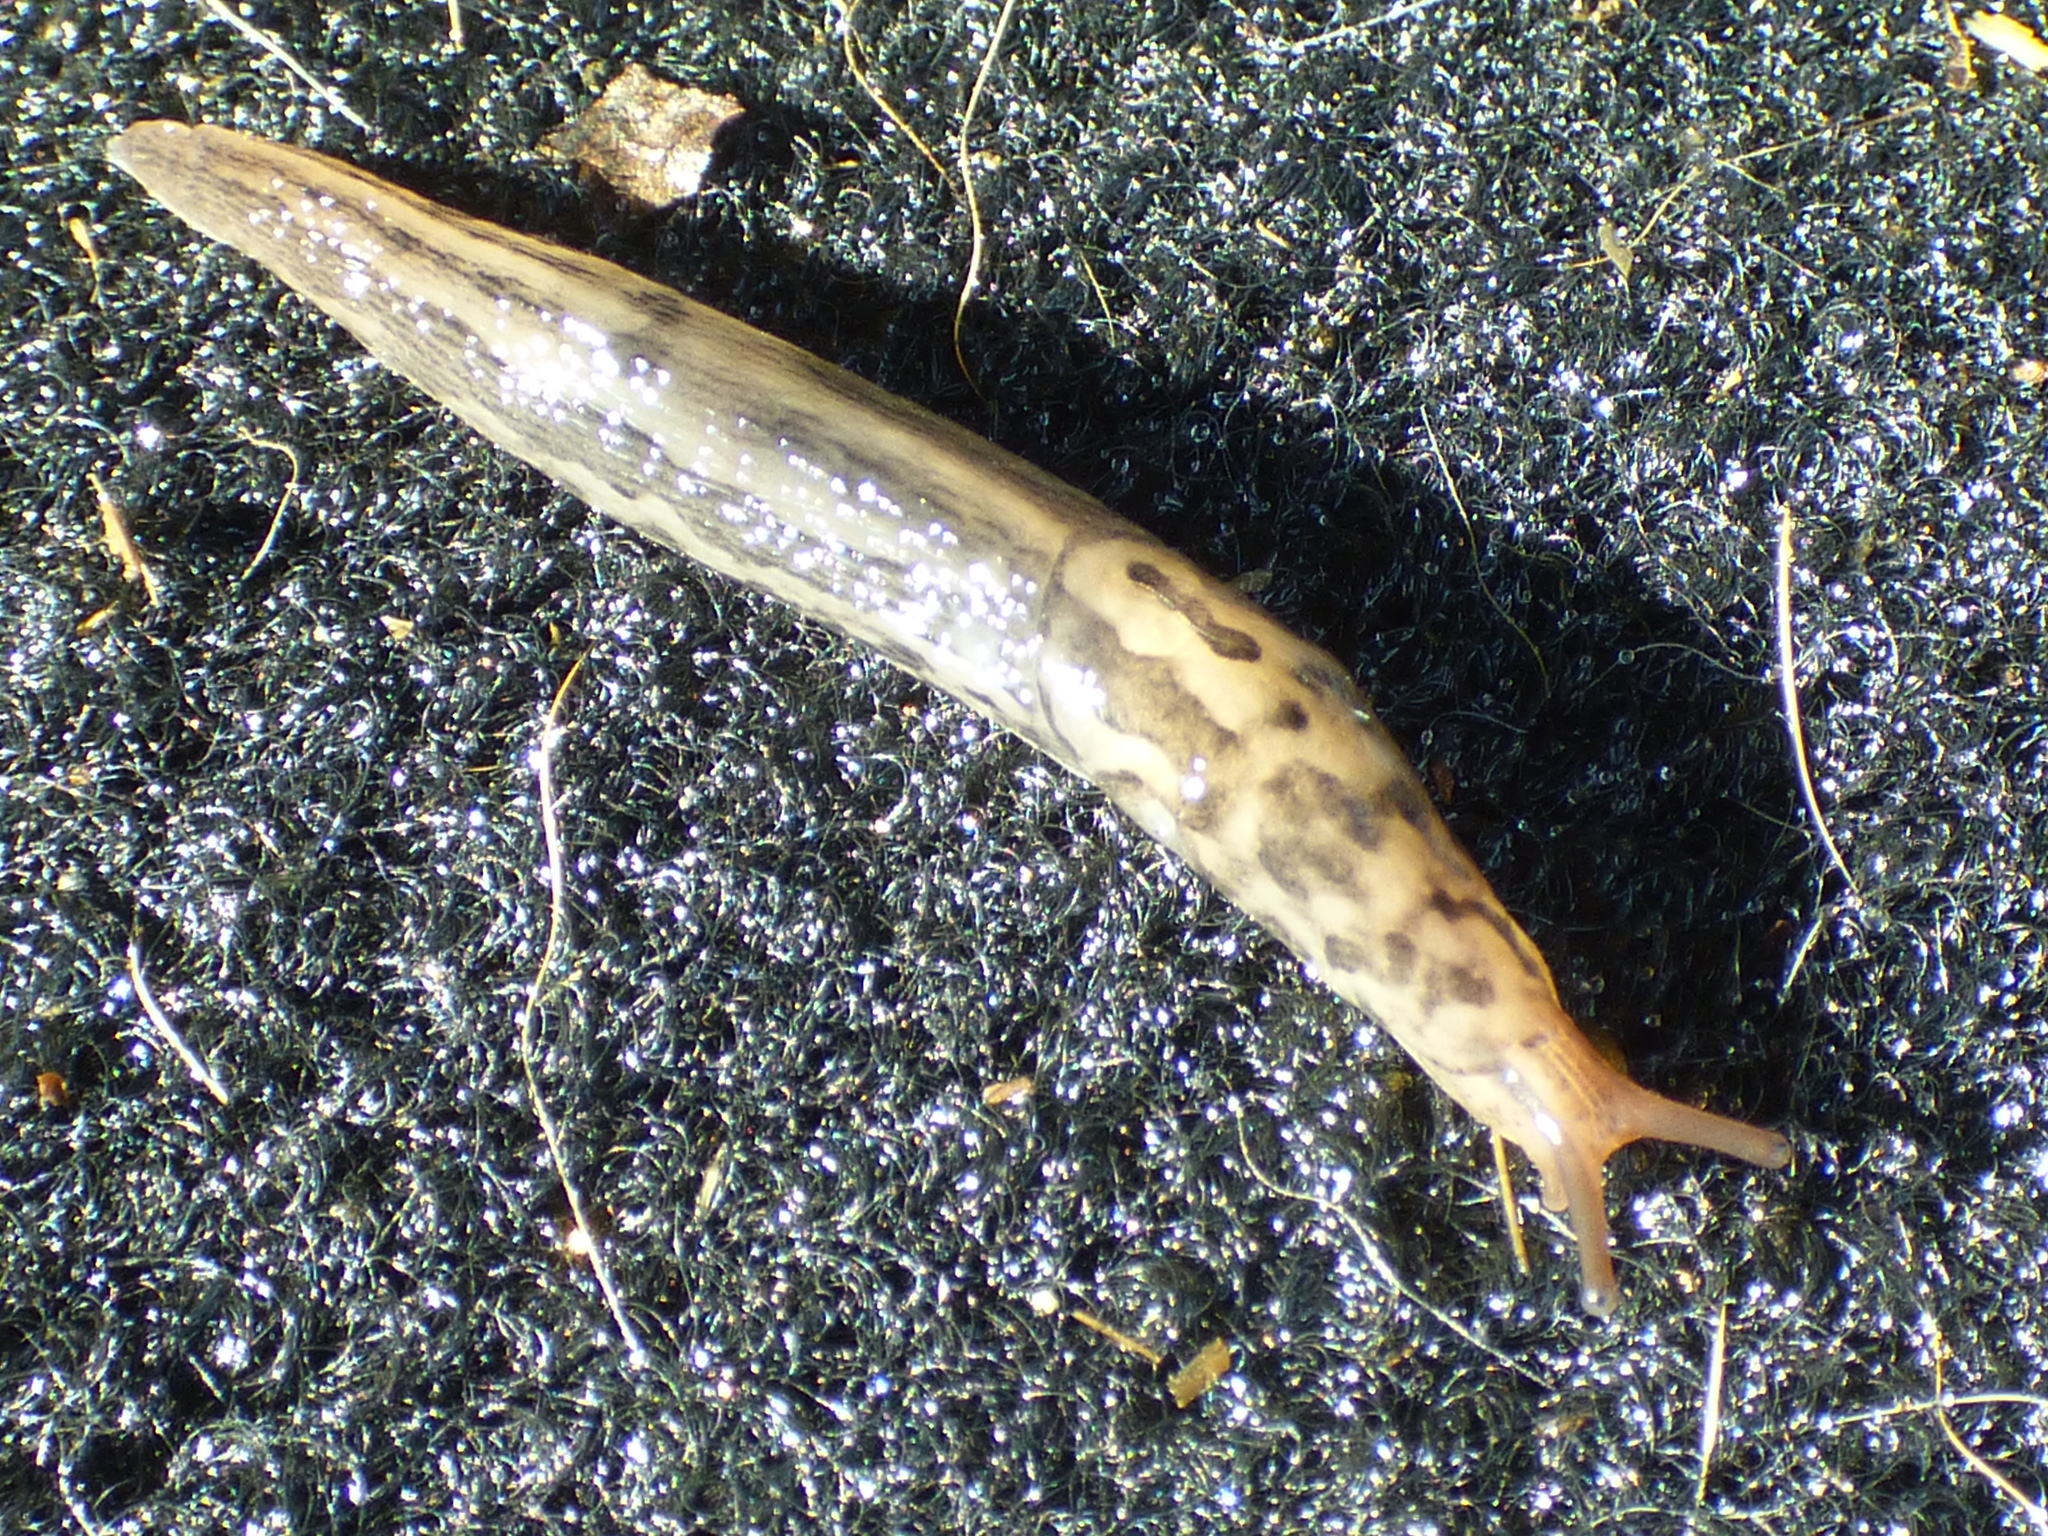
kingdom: Animalia
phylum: Mollusca
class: Gastropoda
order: Stylommatophora
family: Limacidae
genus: Limax
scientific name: Limax maximus
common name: Great grey slug
